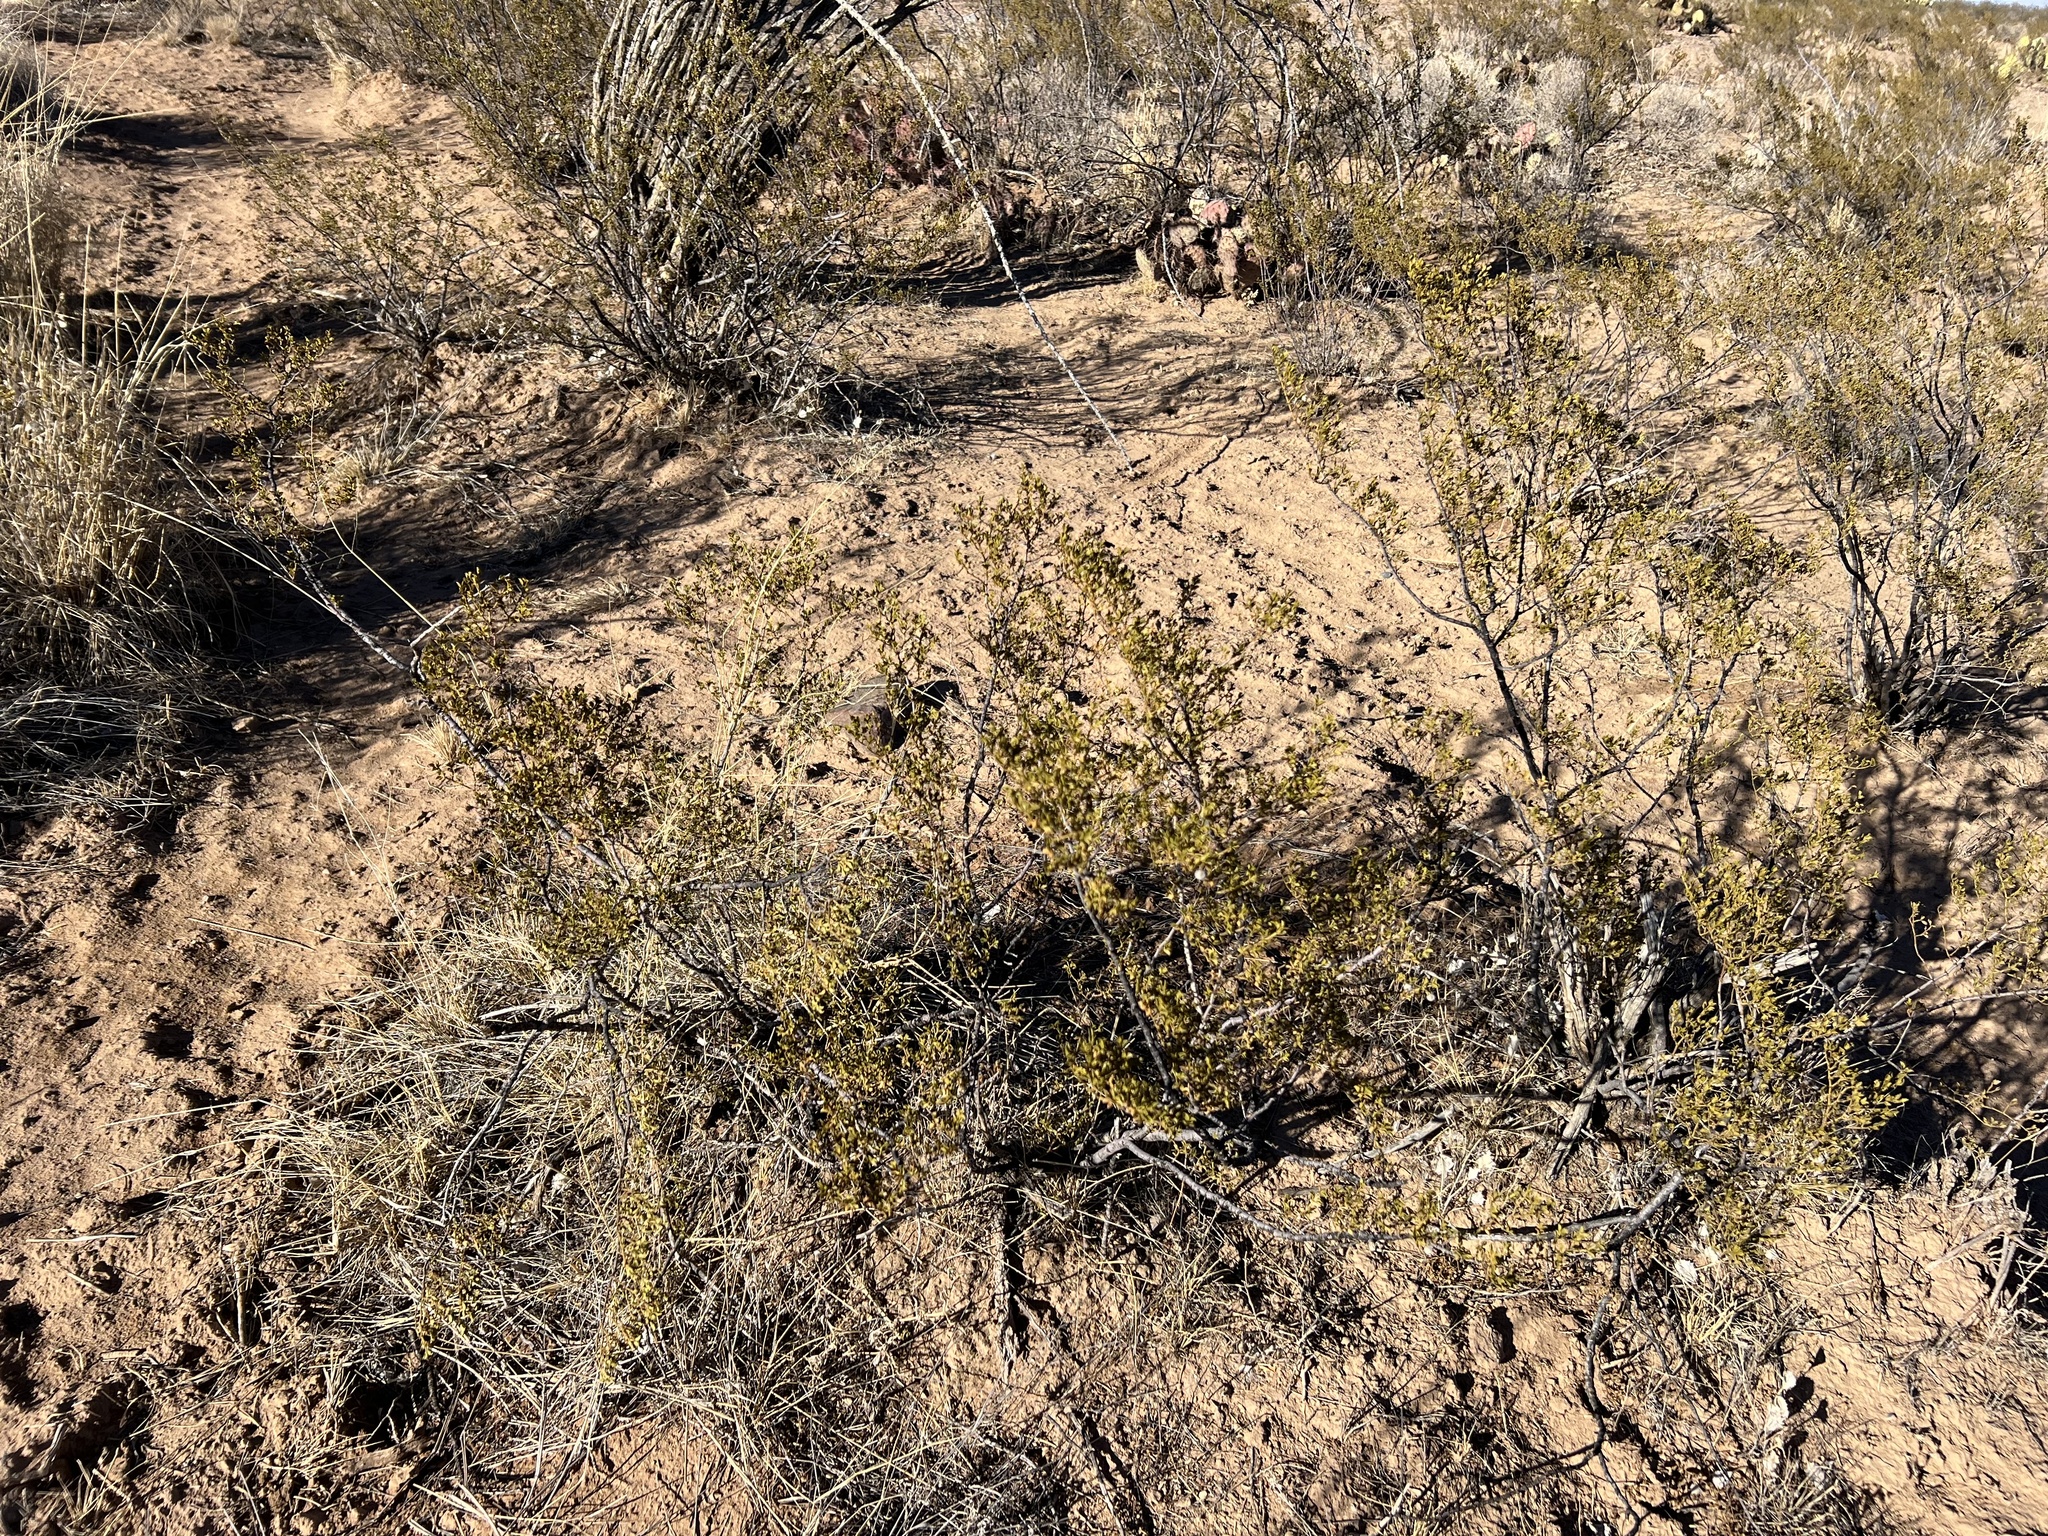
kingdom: Plantae
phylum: Tracheophyta
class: Magnoliopsida
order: Zygophyllales
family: Zygophyllaceae
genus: Larrea
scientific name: Larrea tridentata
